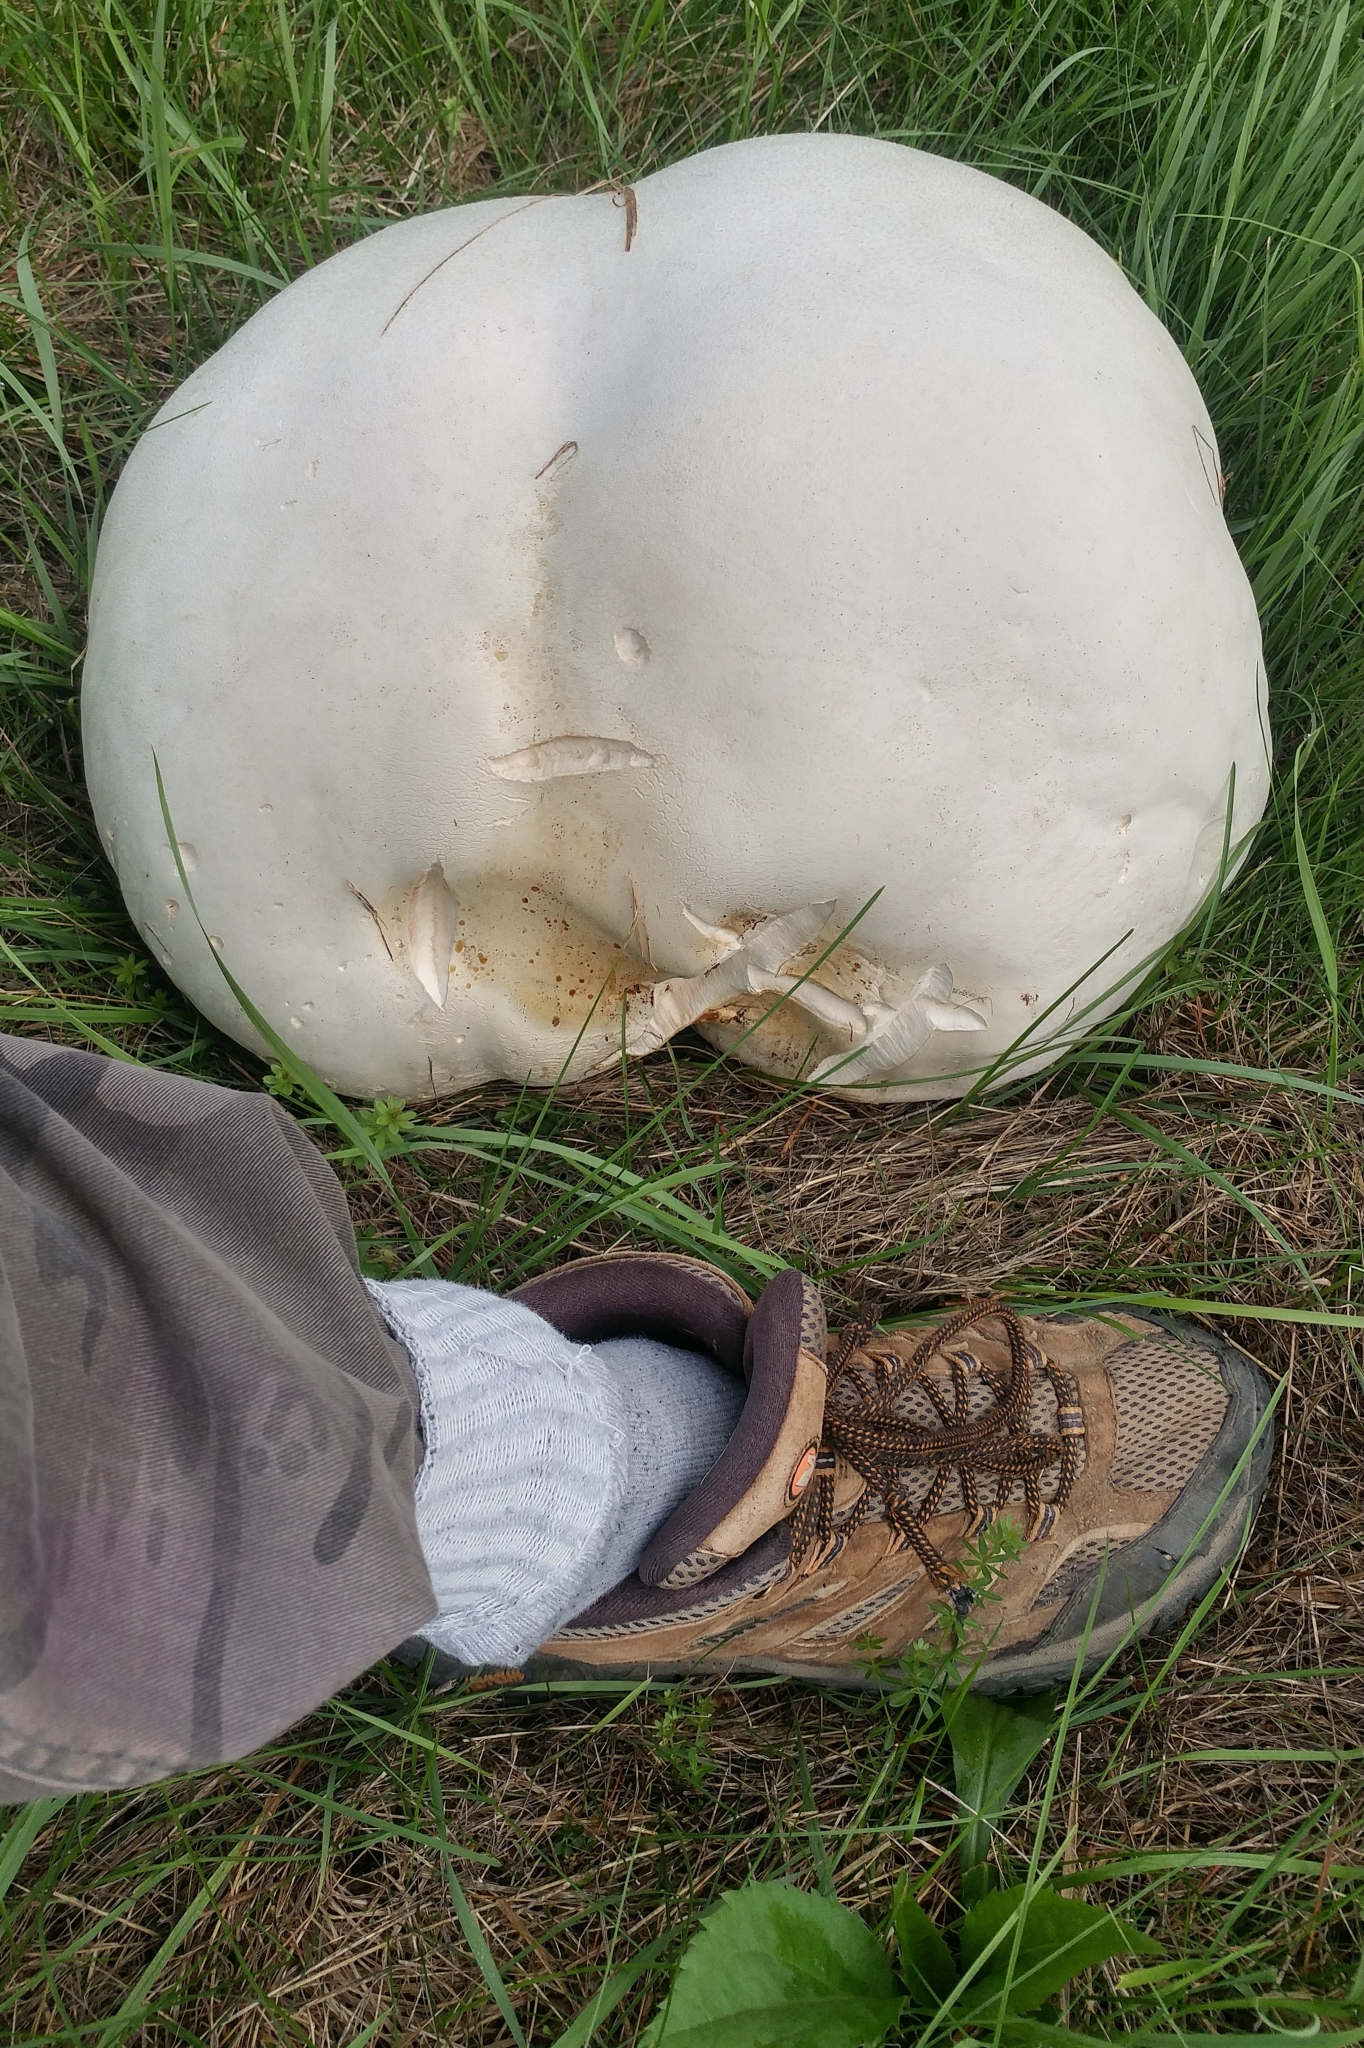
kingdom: Fungi
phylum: Basidiomycota
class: Agaricomycetes
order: Agaricales
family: Lycoperdaceae
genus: Calvatia
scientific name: Calvatia gigantea
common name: Giant puffball
